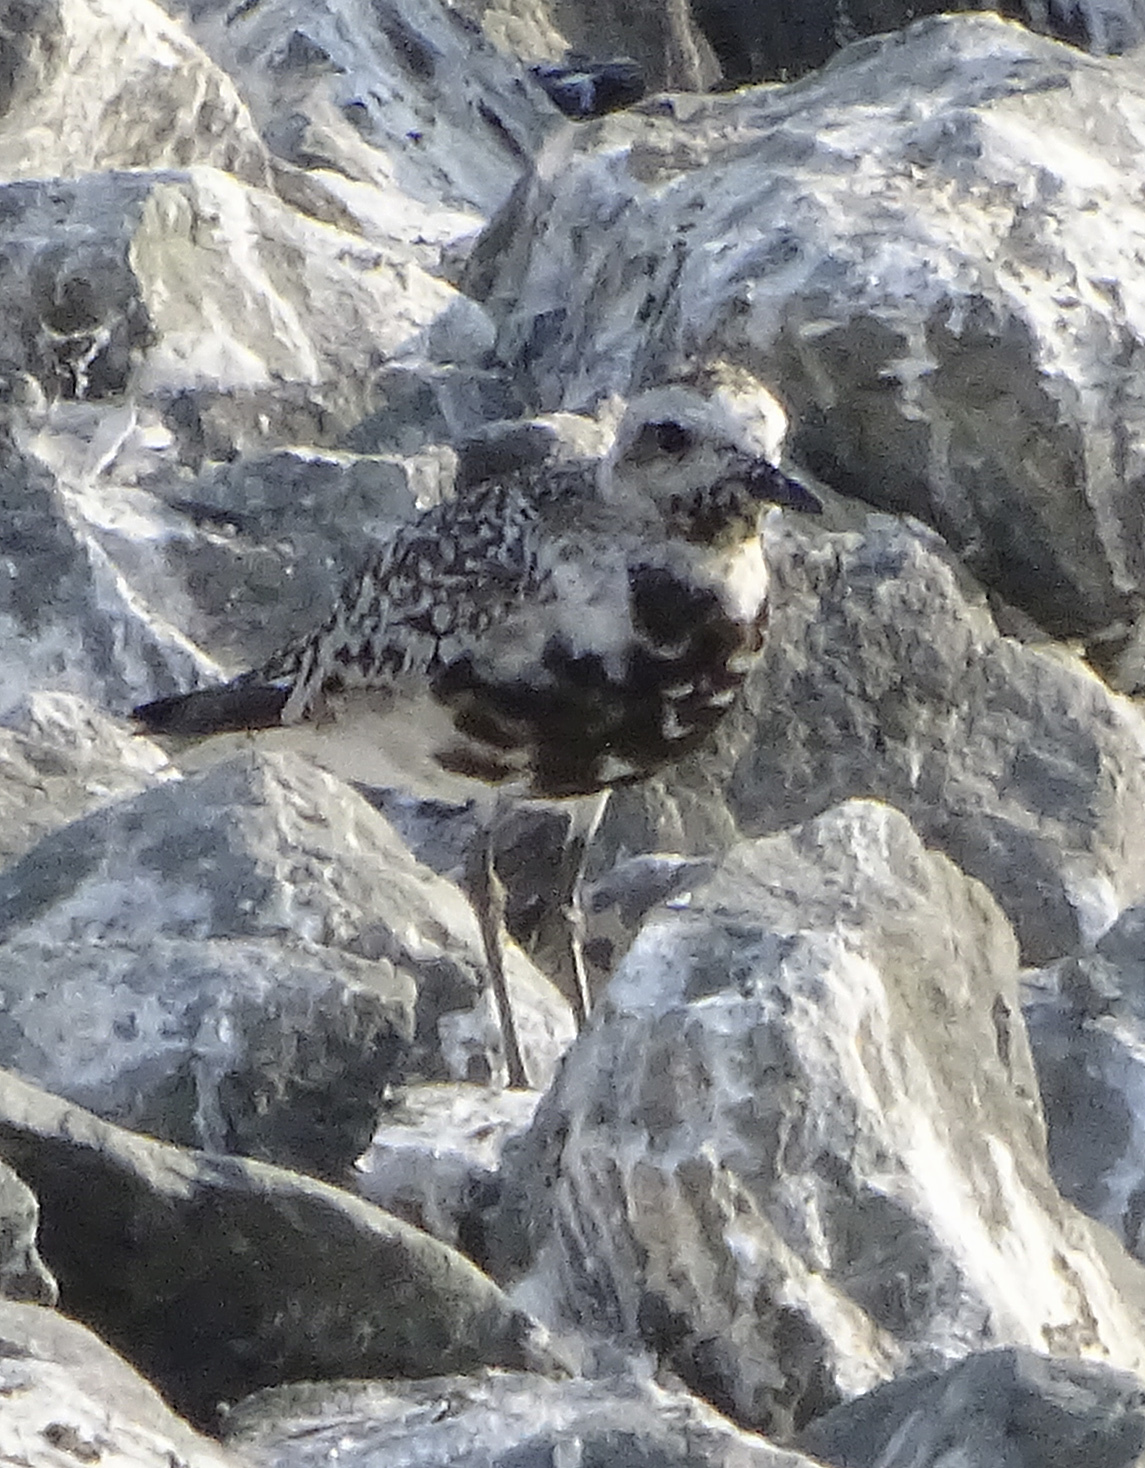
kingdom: Animalia
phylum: Chordata
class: Aves
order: Charadriiformes
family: Charadriidae
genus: Pluvialis
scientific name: Pluvialis squatarola
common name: Grey plover
